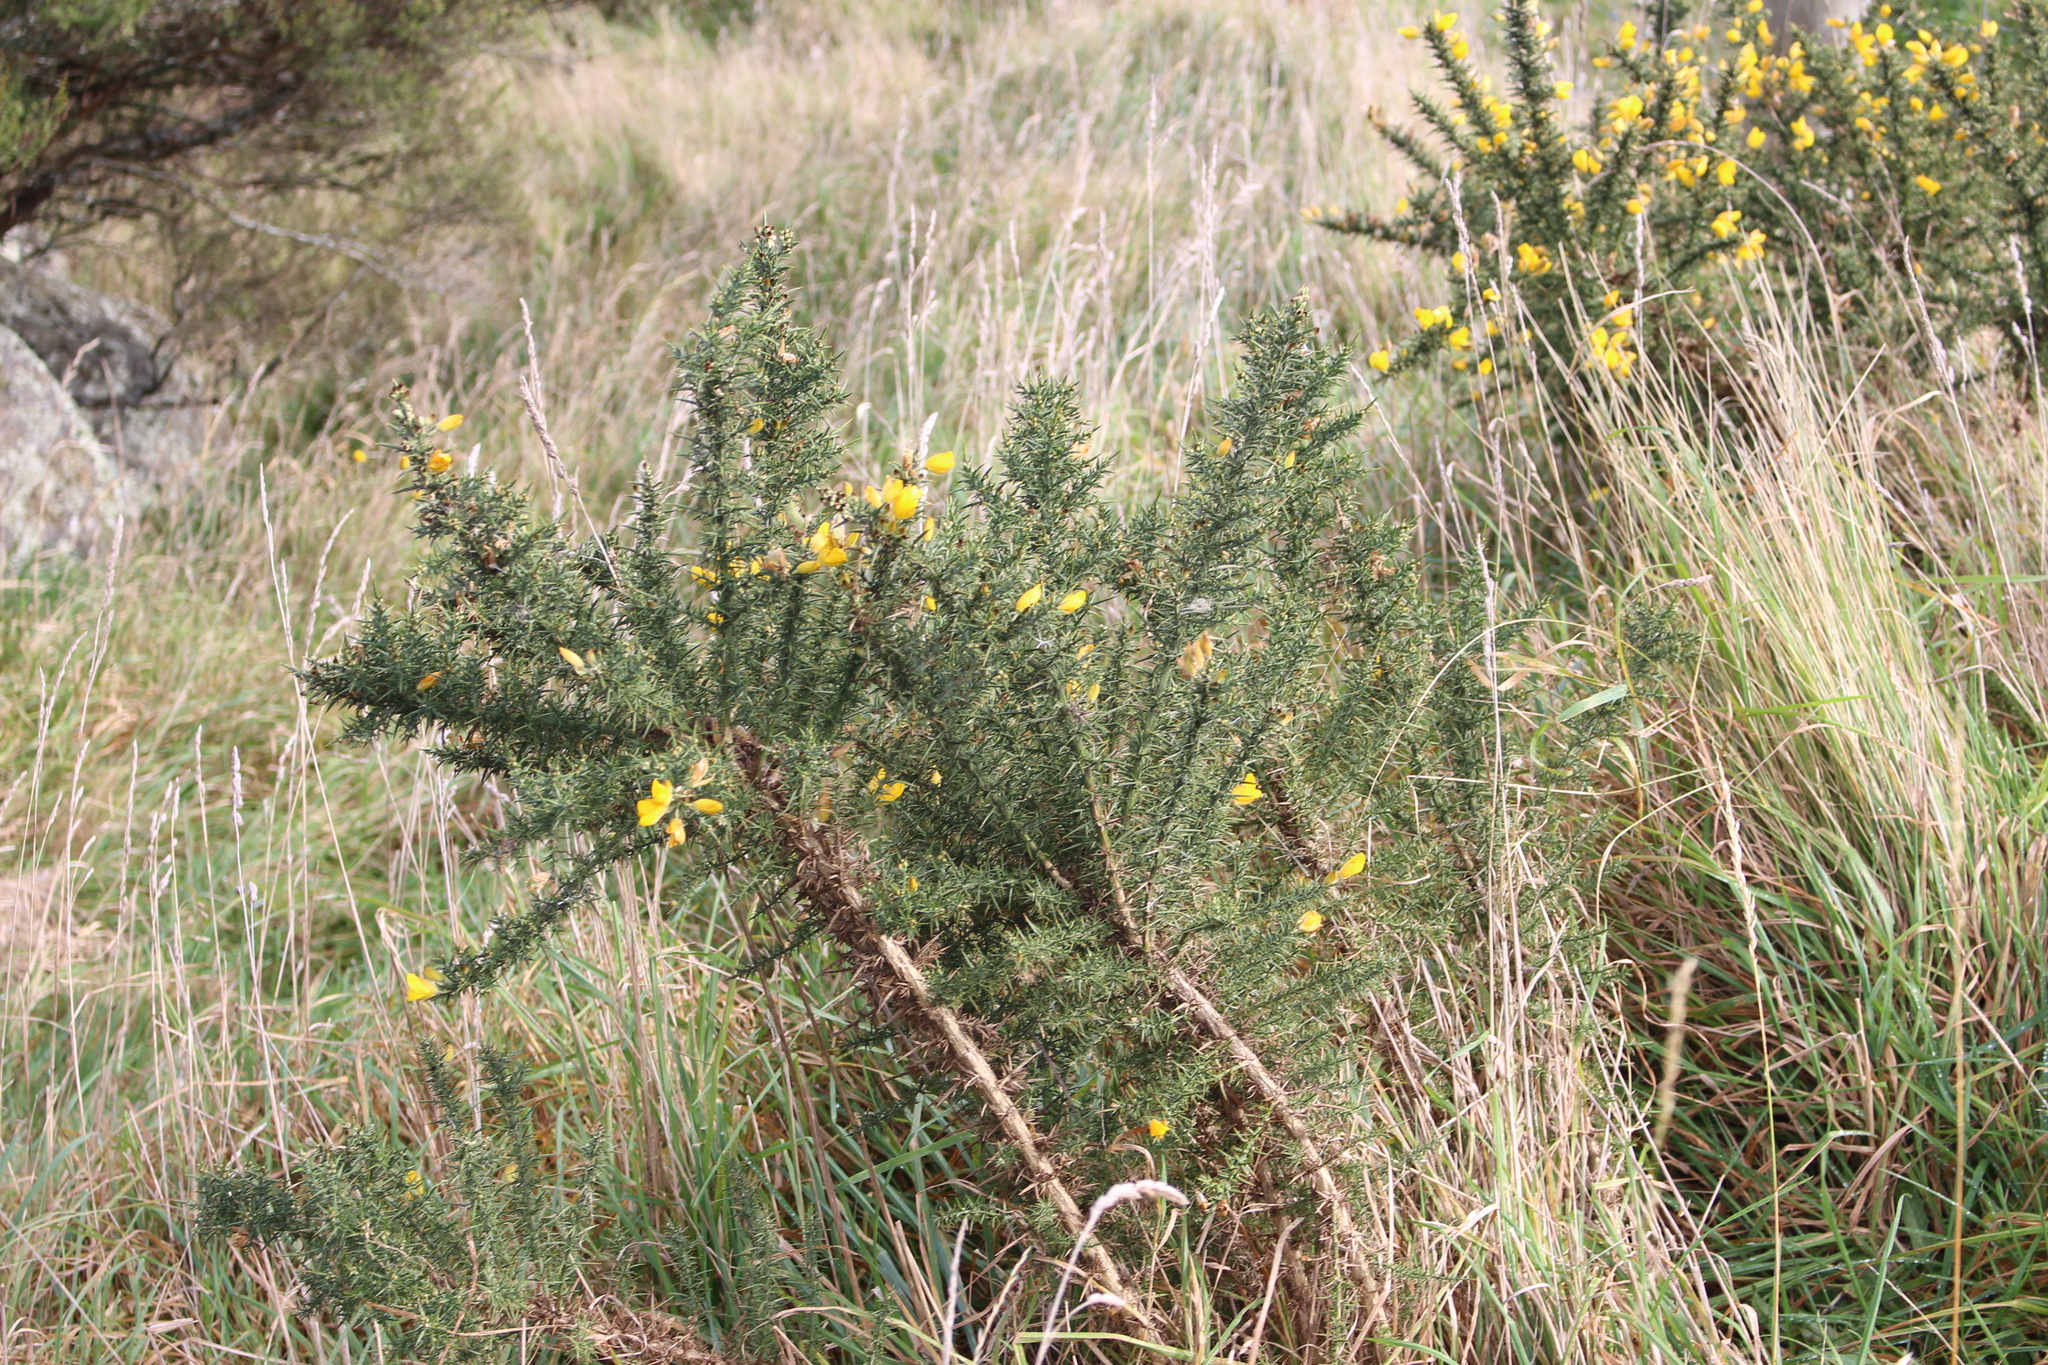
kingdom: Plantae
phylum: Tracheophyta
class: Magnoliopsida
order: Fabales
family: Fabaceae
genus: Ulex
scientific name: Ulex europaeus
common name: Common gorse
